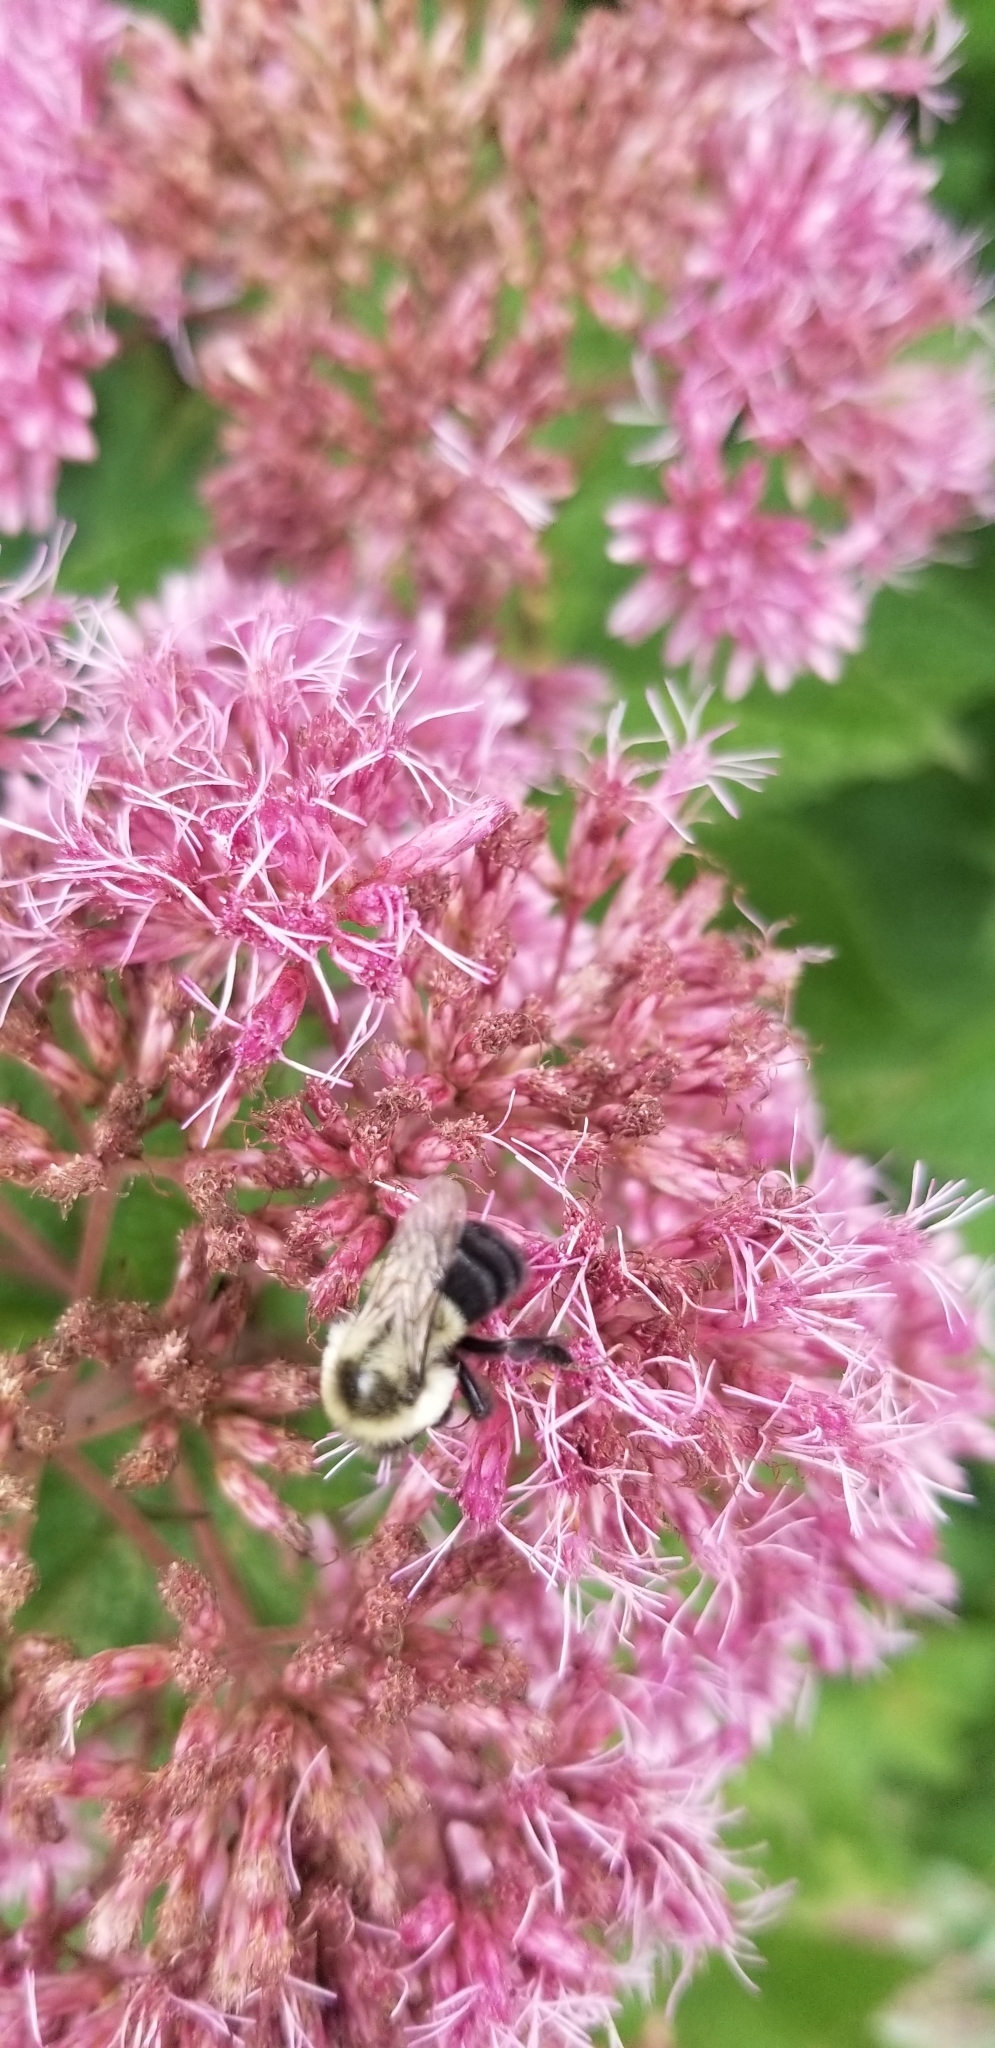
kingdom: Animalia
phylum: Arthropoda
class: Insecta
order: Hymenoptera
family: Apidae
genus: Bombus
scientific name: Bombus impatiens
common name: Common eastern bumble bee
